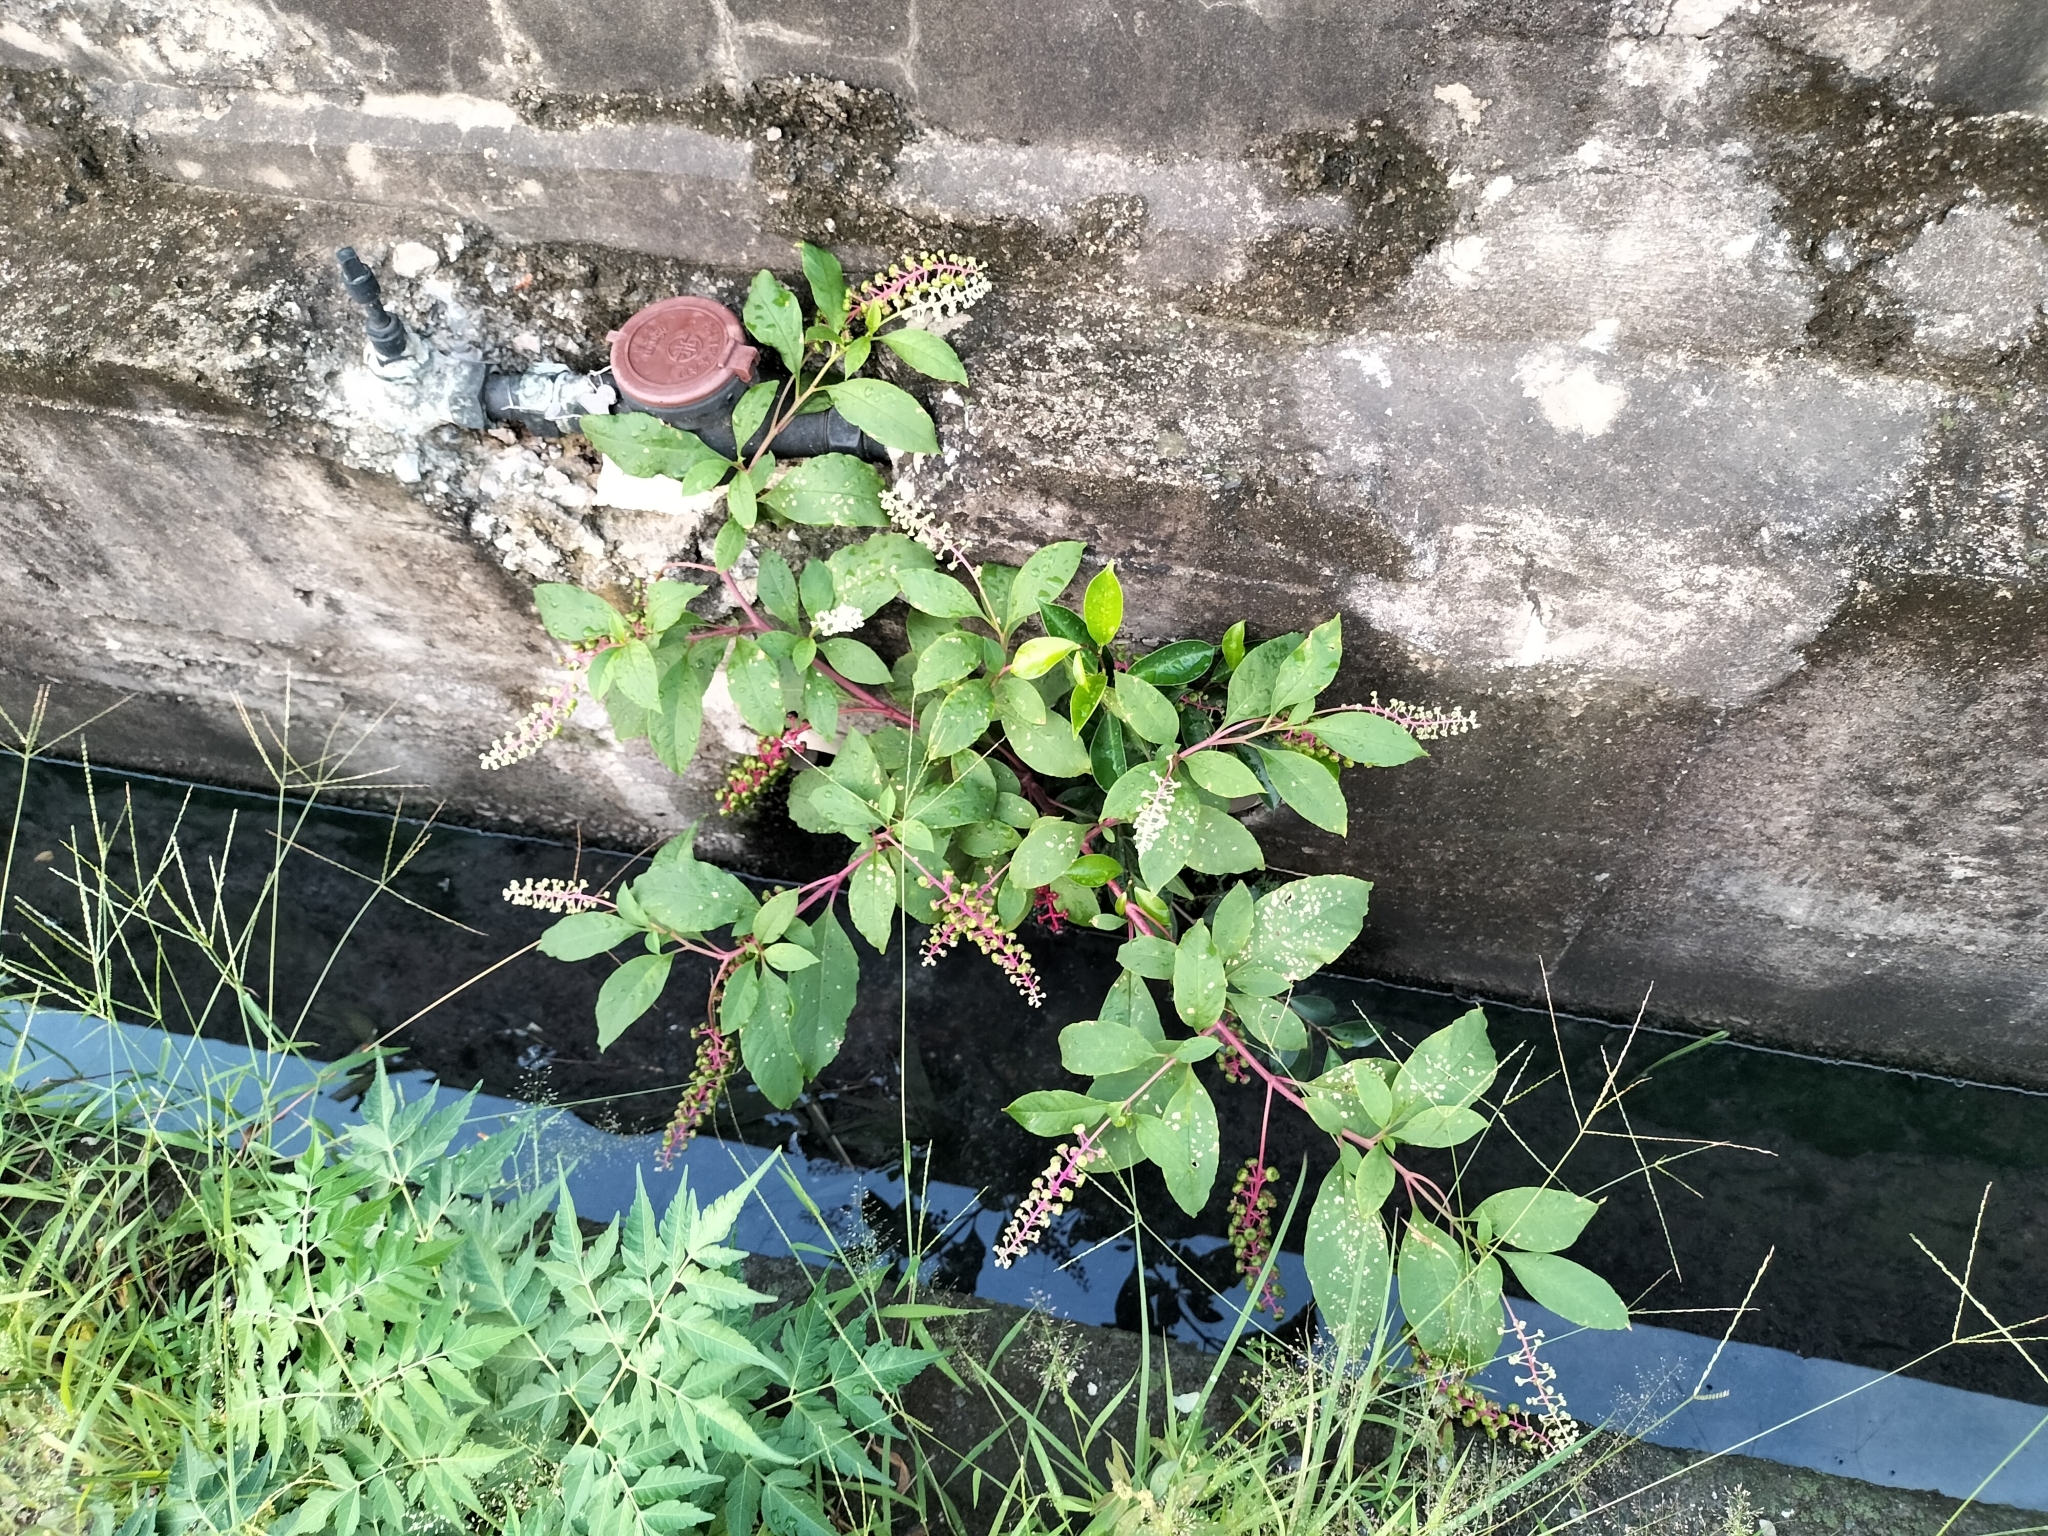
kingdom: Plantae
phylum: Tracheophyta
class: Magnoliopsida
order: Caryophyllales
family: Phytolaccaceae
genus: Phytolacca
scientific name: Phytolacca americana
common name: American pokeweed
